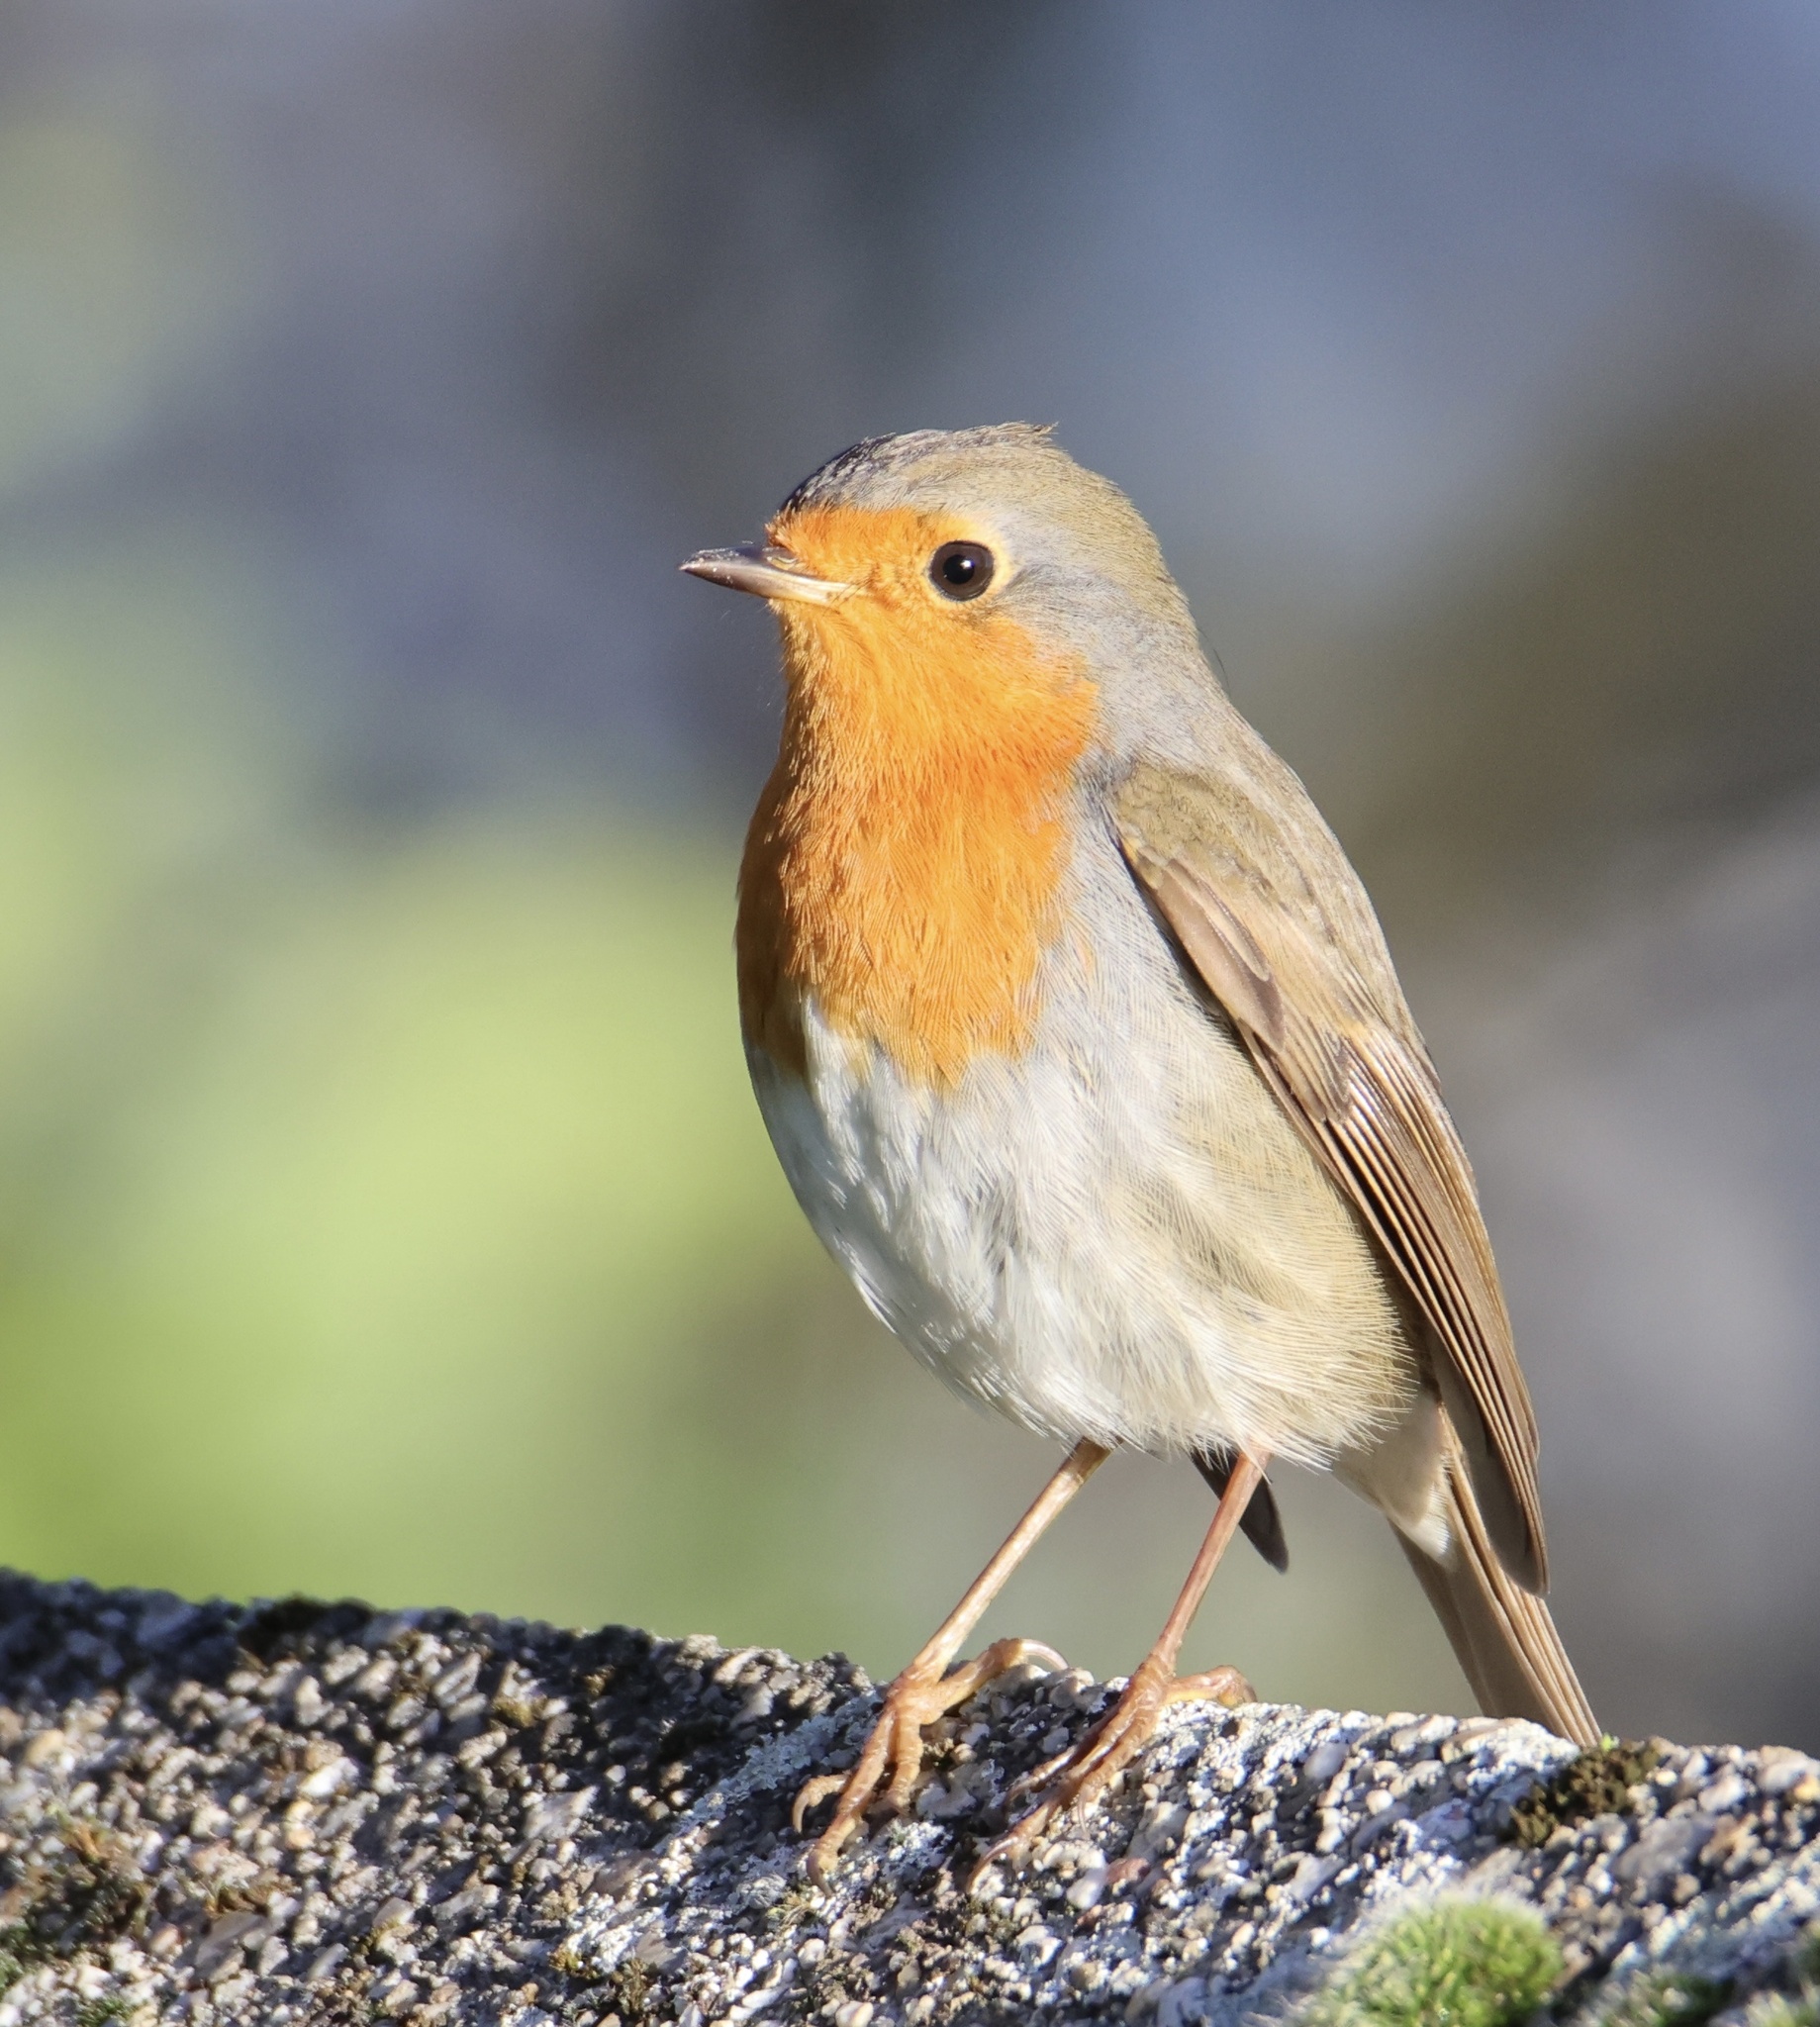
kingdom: Animalia
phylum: Chordata
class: Aves
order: Passeriformes
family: Muscicapidae
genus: Erithacus
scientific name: Erithacus rubecula
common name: European robin
